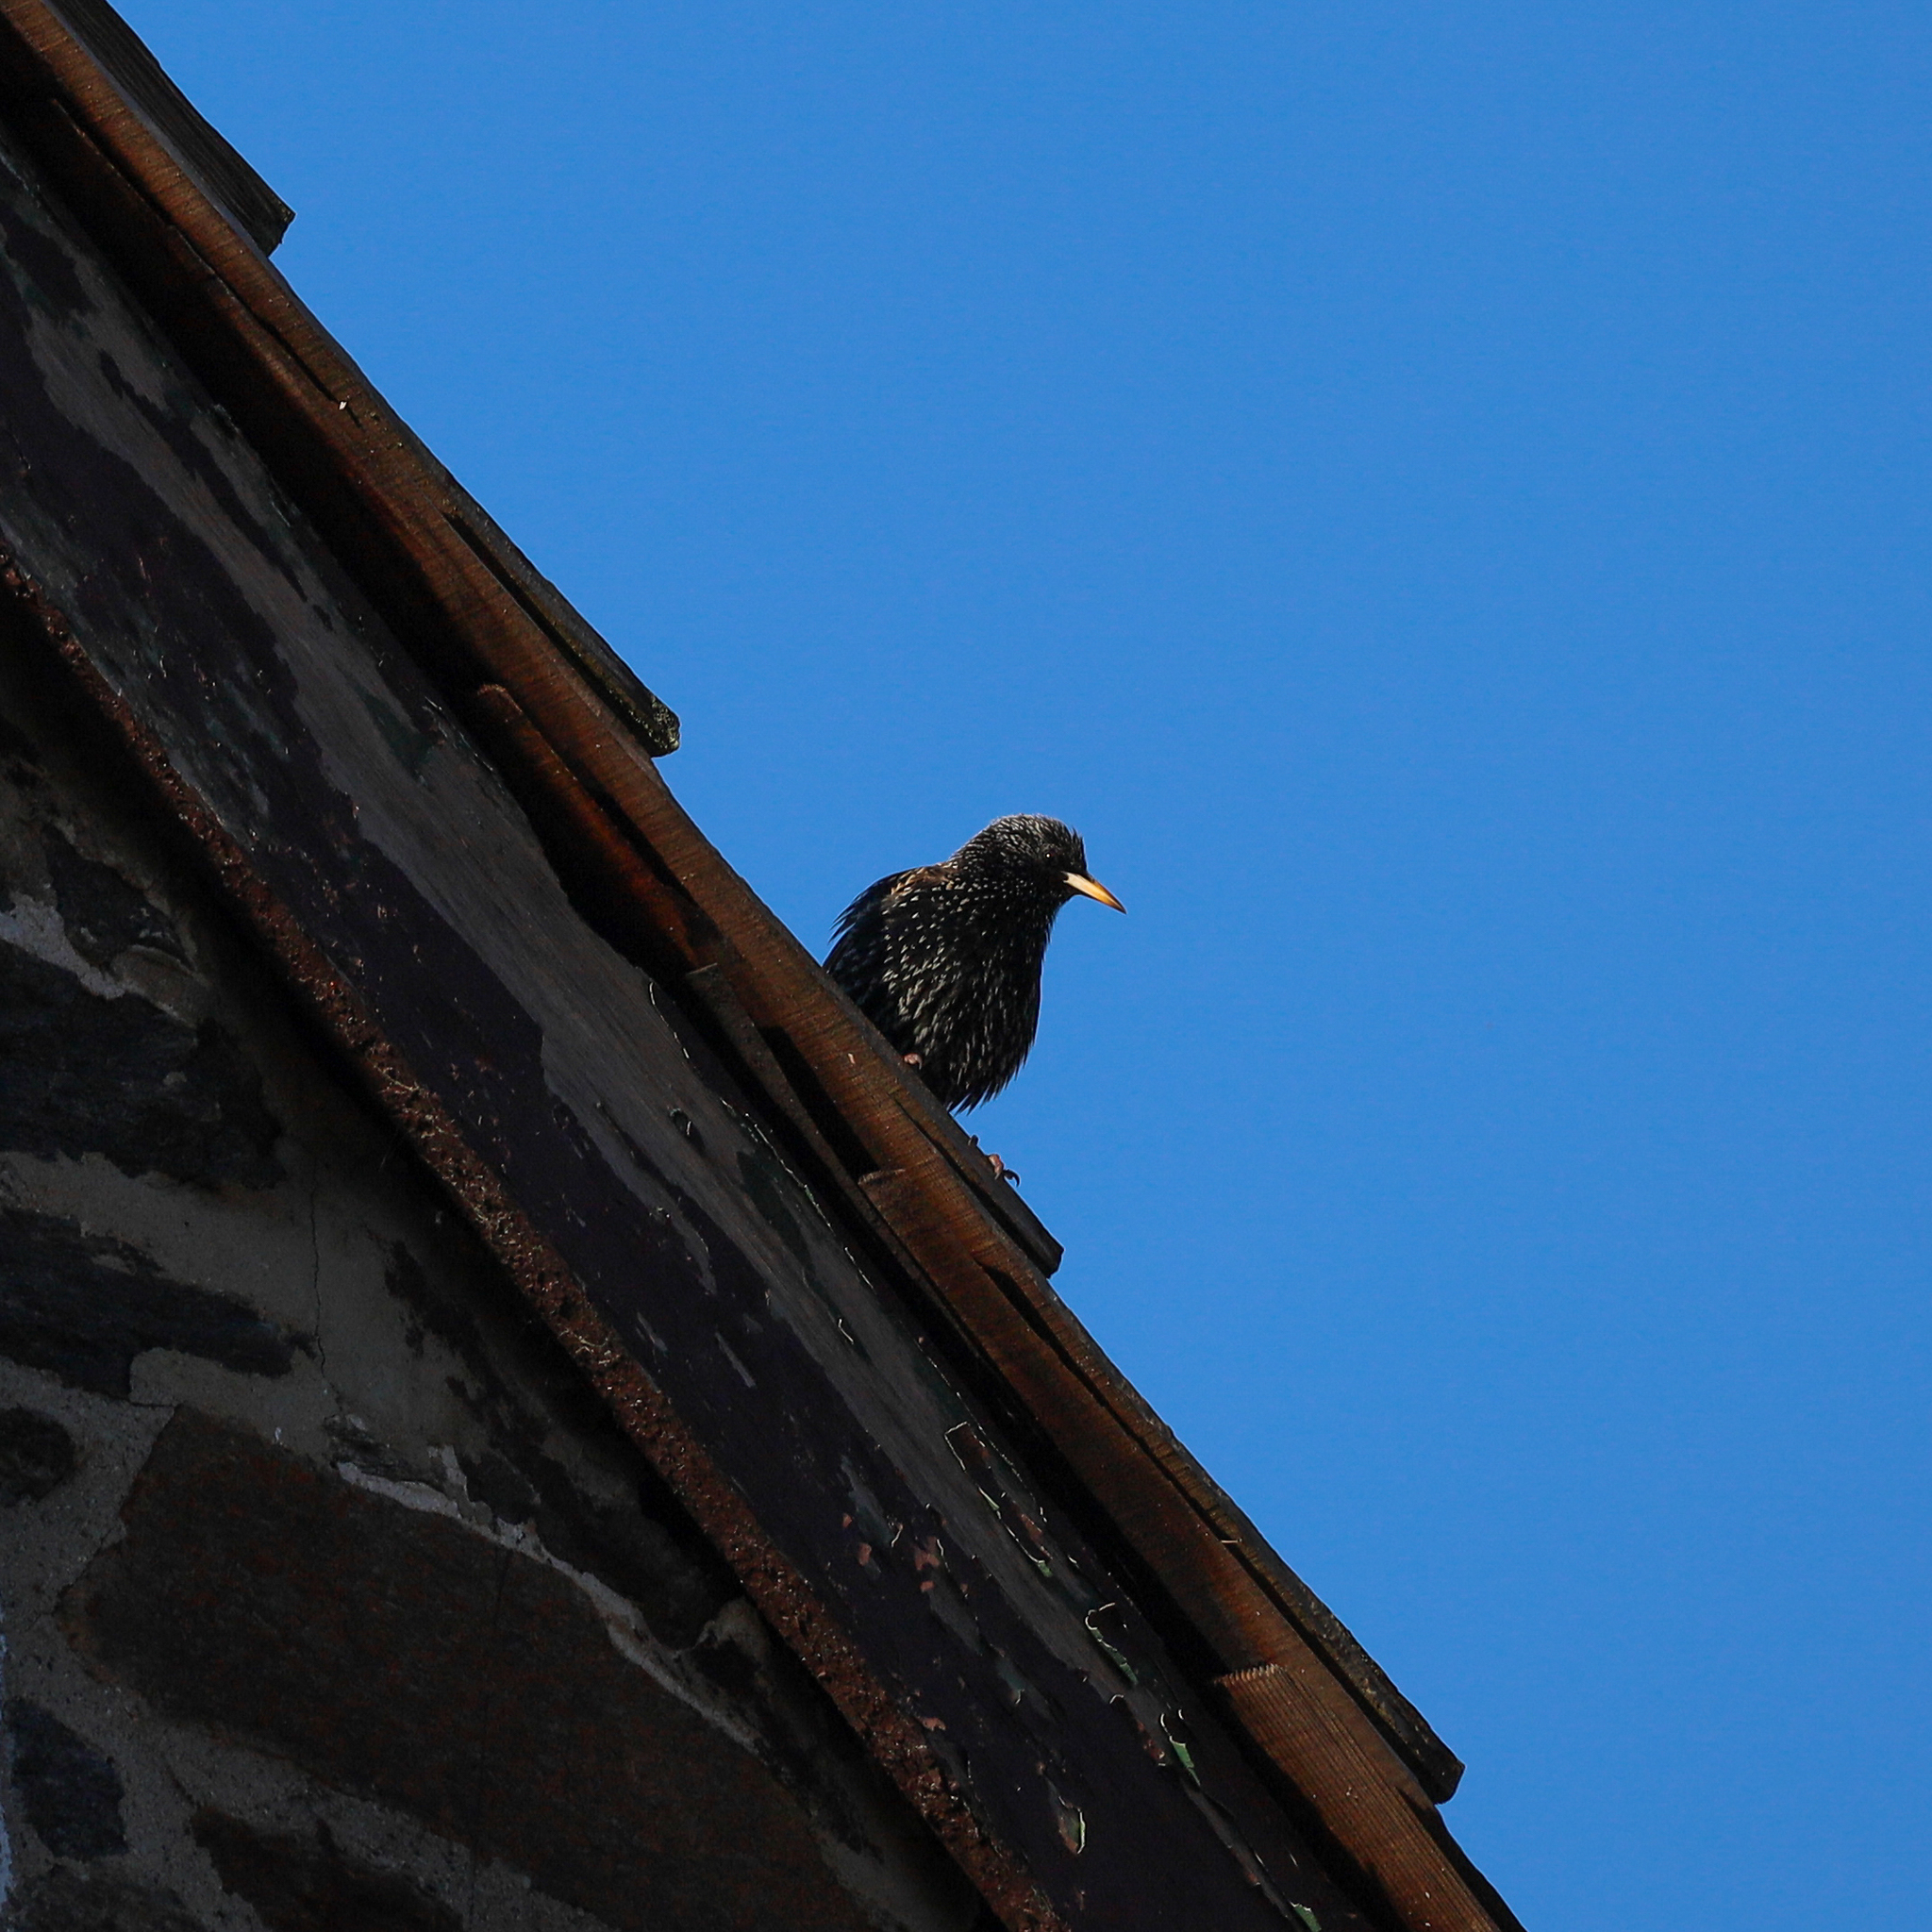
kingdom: Animalia
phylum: Chordata
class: Aves
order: Passeriformes
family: Sturnidae
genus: Sturnus
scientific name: Sturnus vulgaris
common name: Common starling
